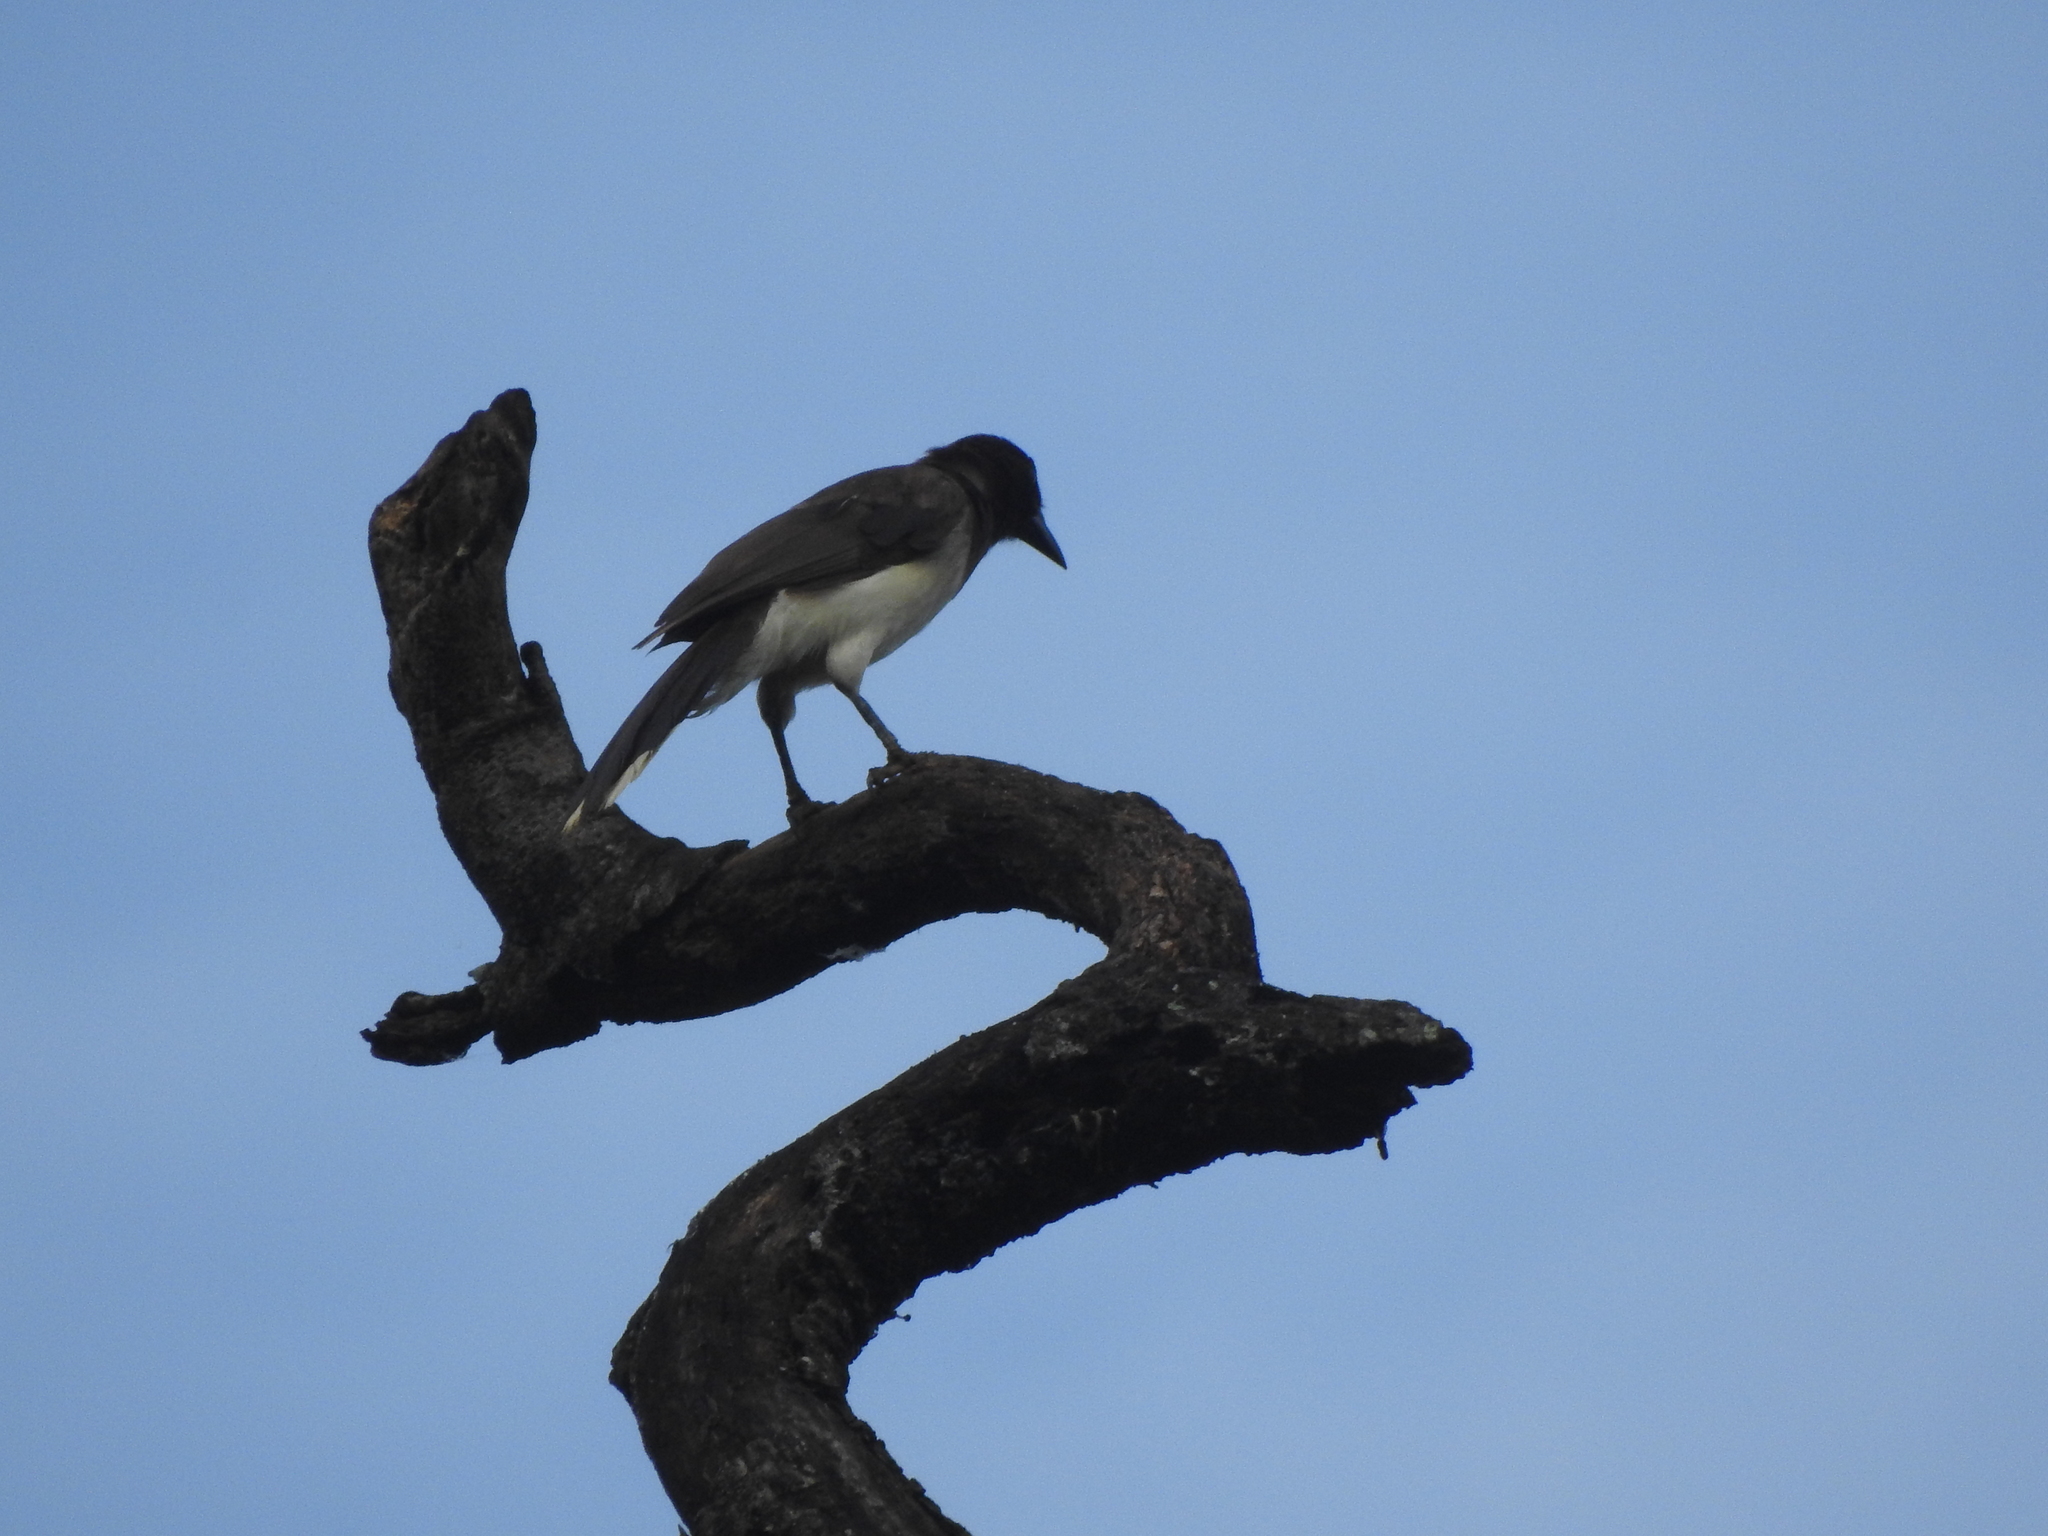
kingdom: Animalia
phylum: Chordata
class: Aves
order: Passeriformes
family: Corvidae
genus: Psilorhinus
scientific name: Psilorhinus morio
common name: Brown jay
